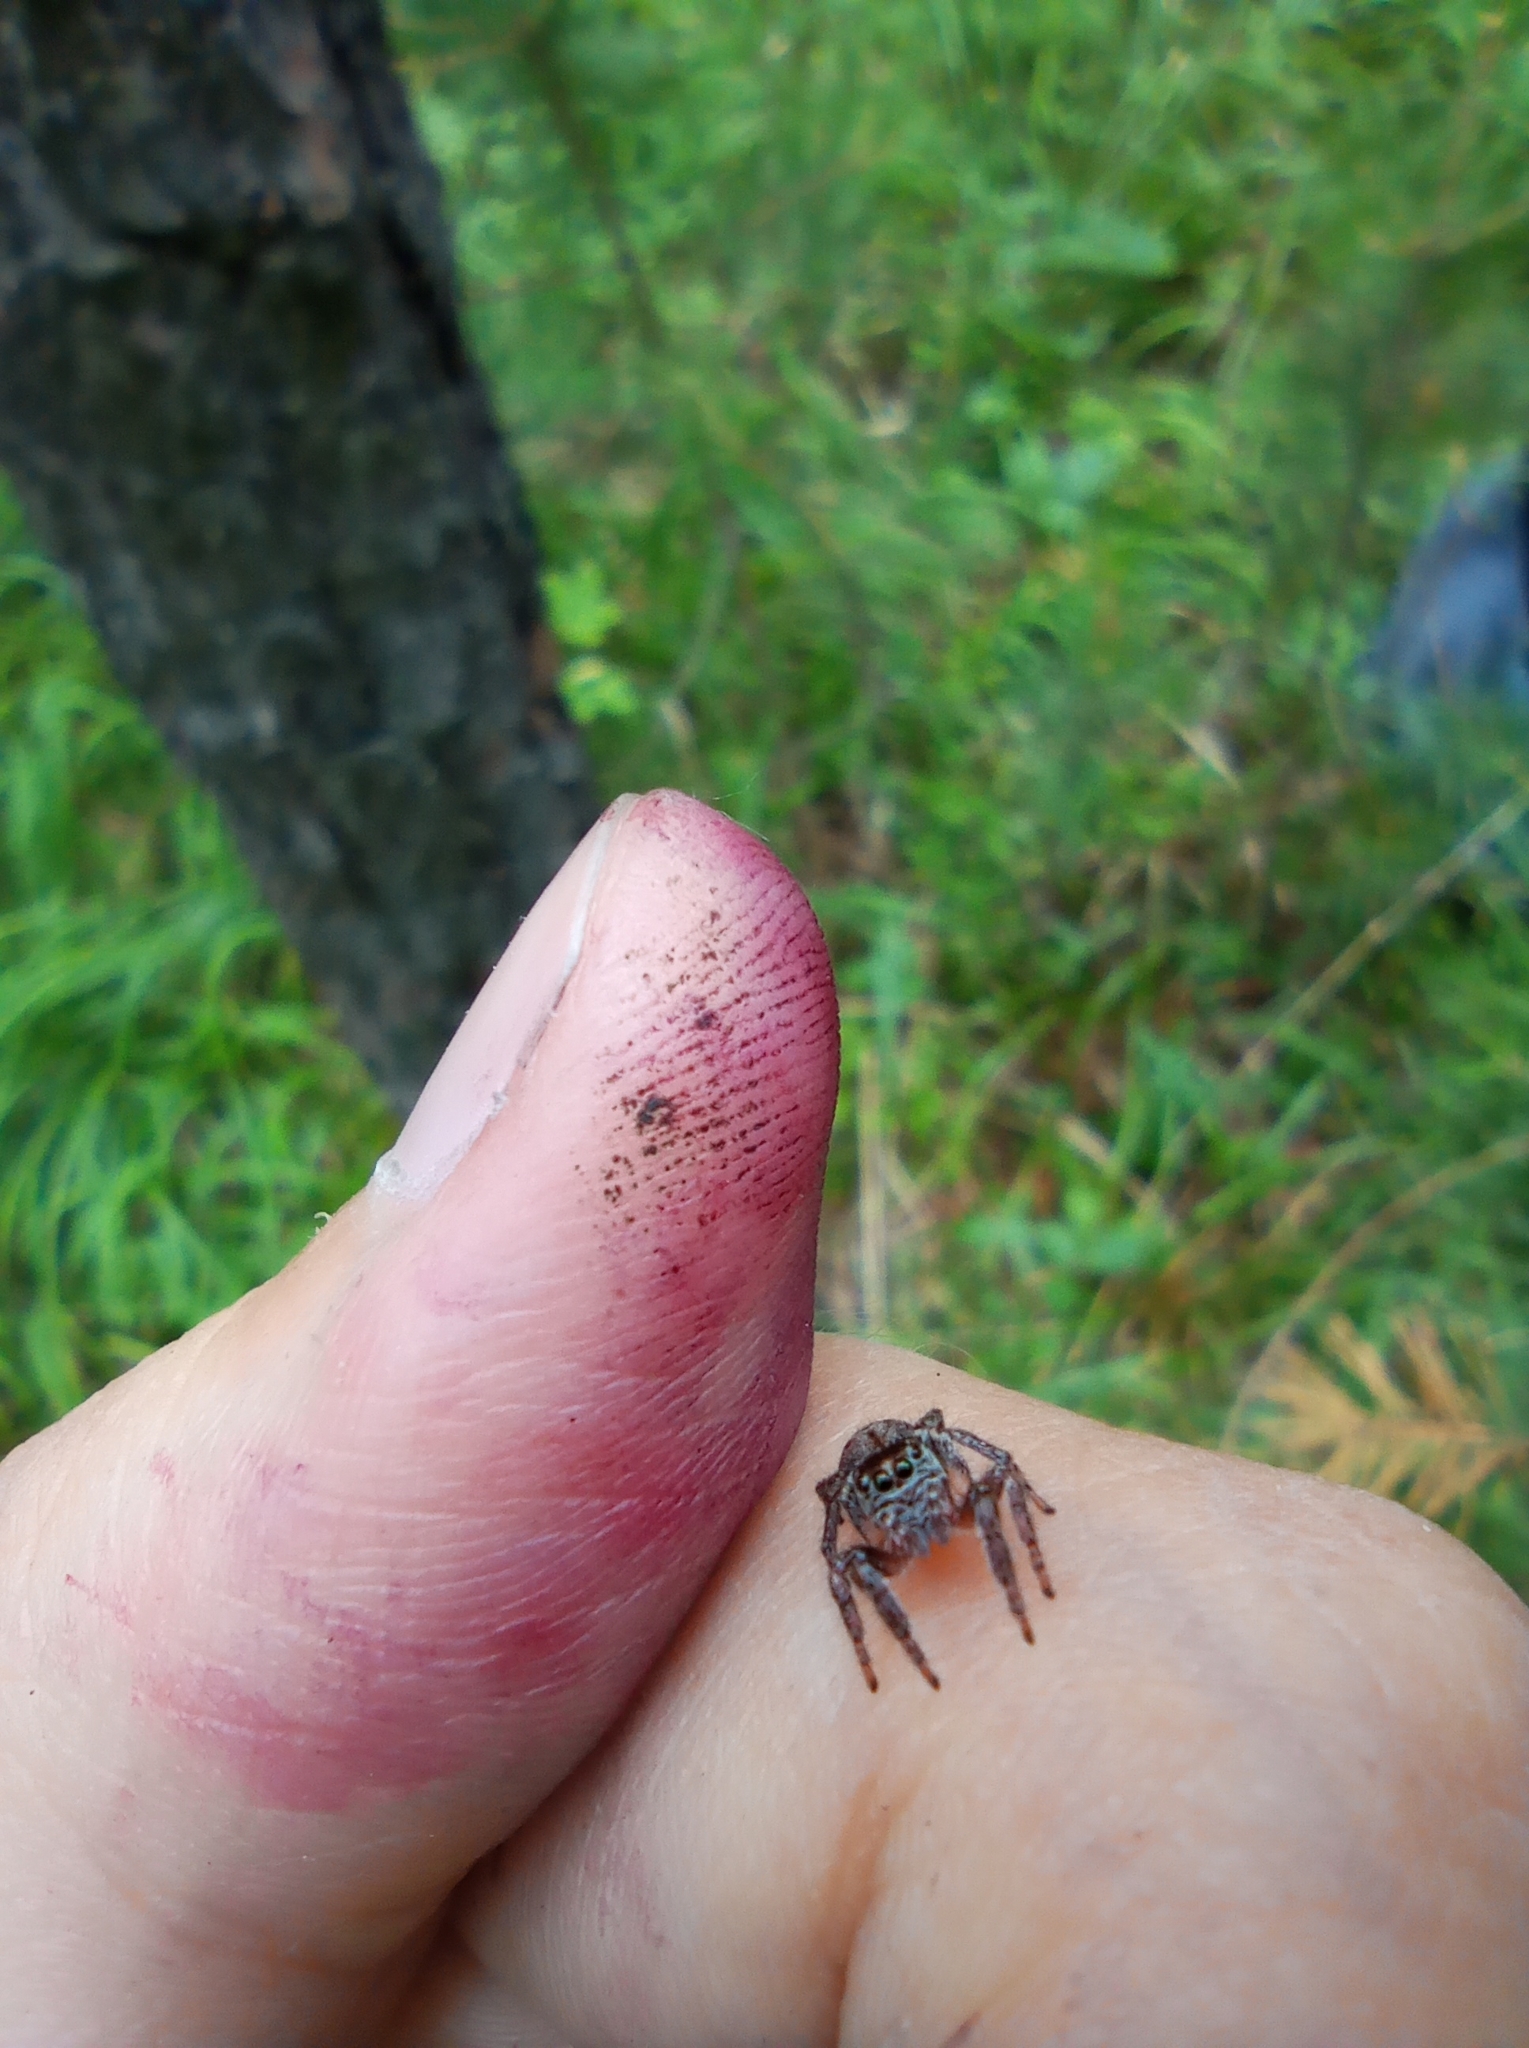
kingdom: Animalia
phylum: Arthropoda
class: Arachnida
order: Araneae
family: Salticidae
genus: Evarcha
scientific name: Evarcha falcata
